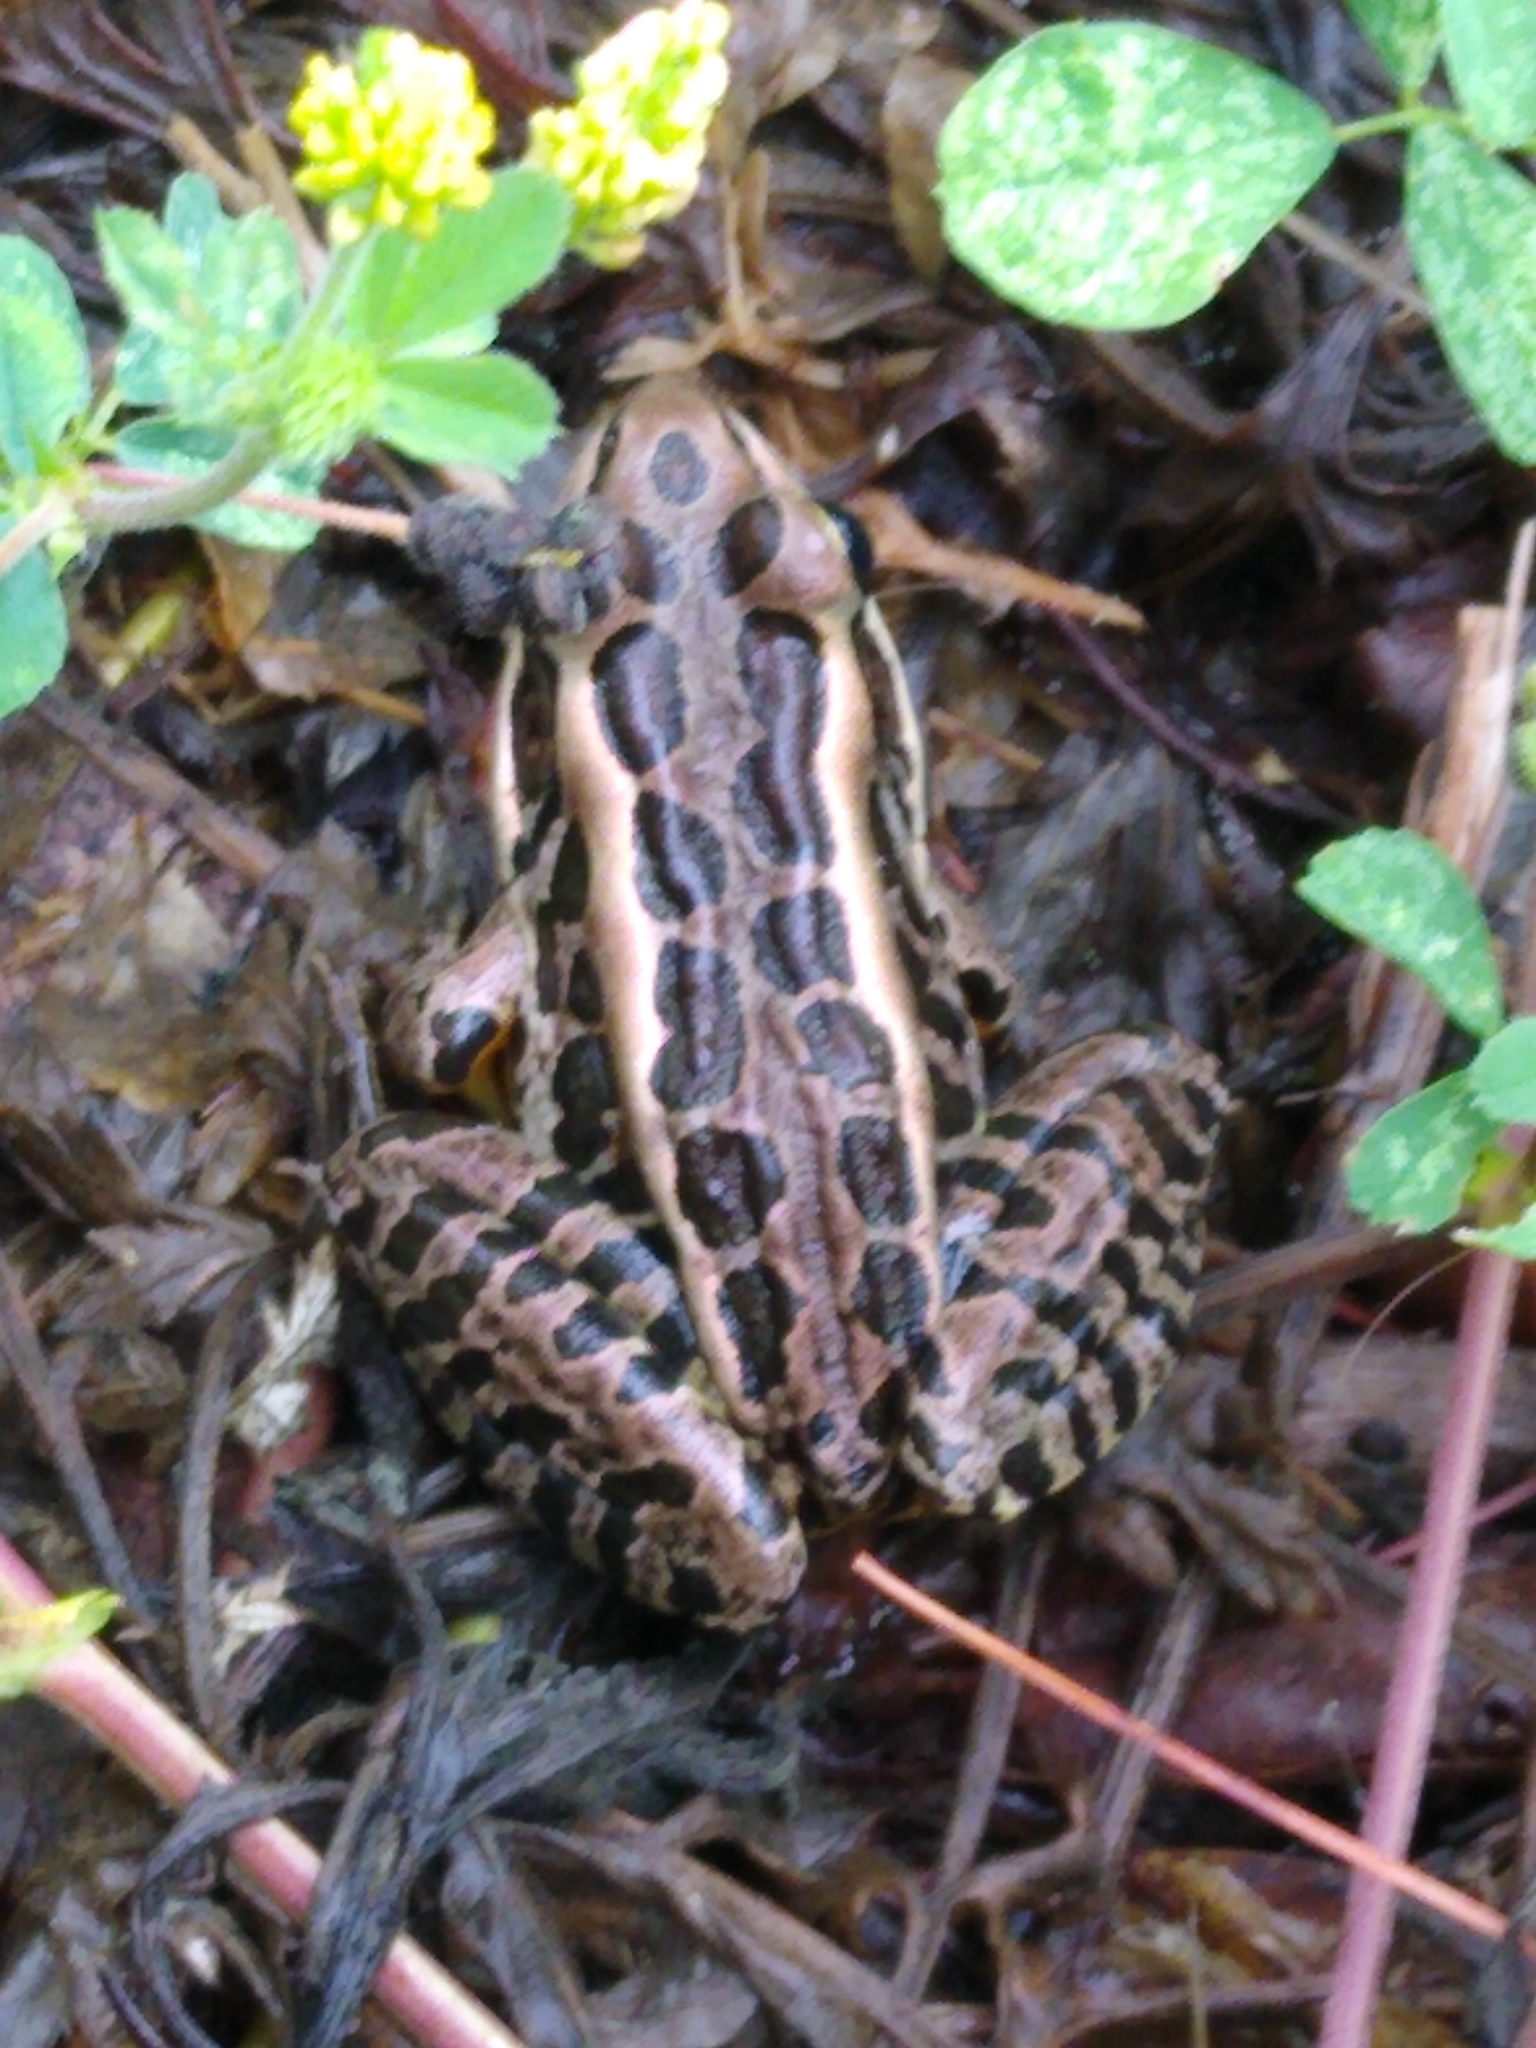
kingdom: Animalia
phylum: Chordata
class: Amphibia
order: Anura
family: Ranidae
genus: Lithobates
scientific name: Lithobates palustris
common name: Pickerel frog
